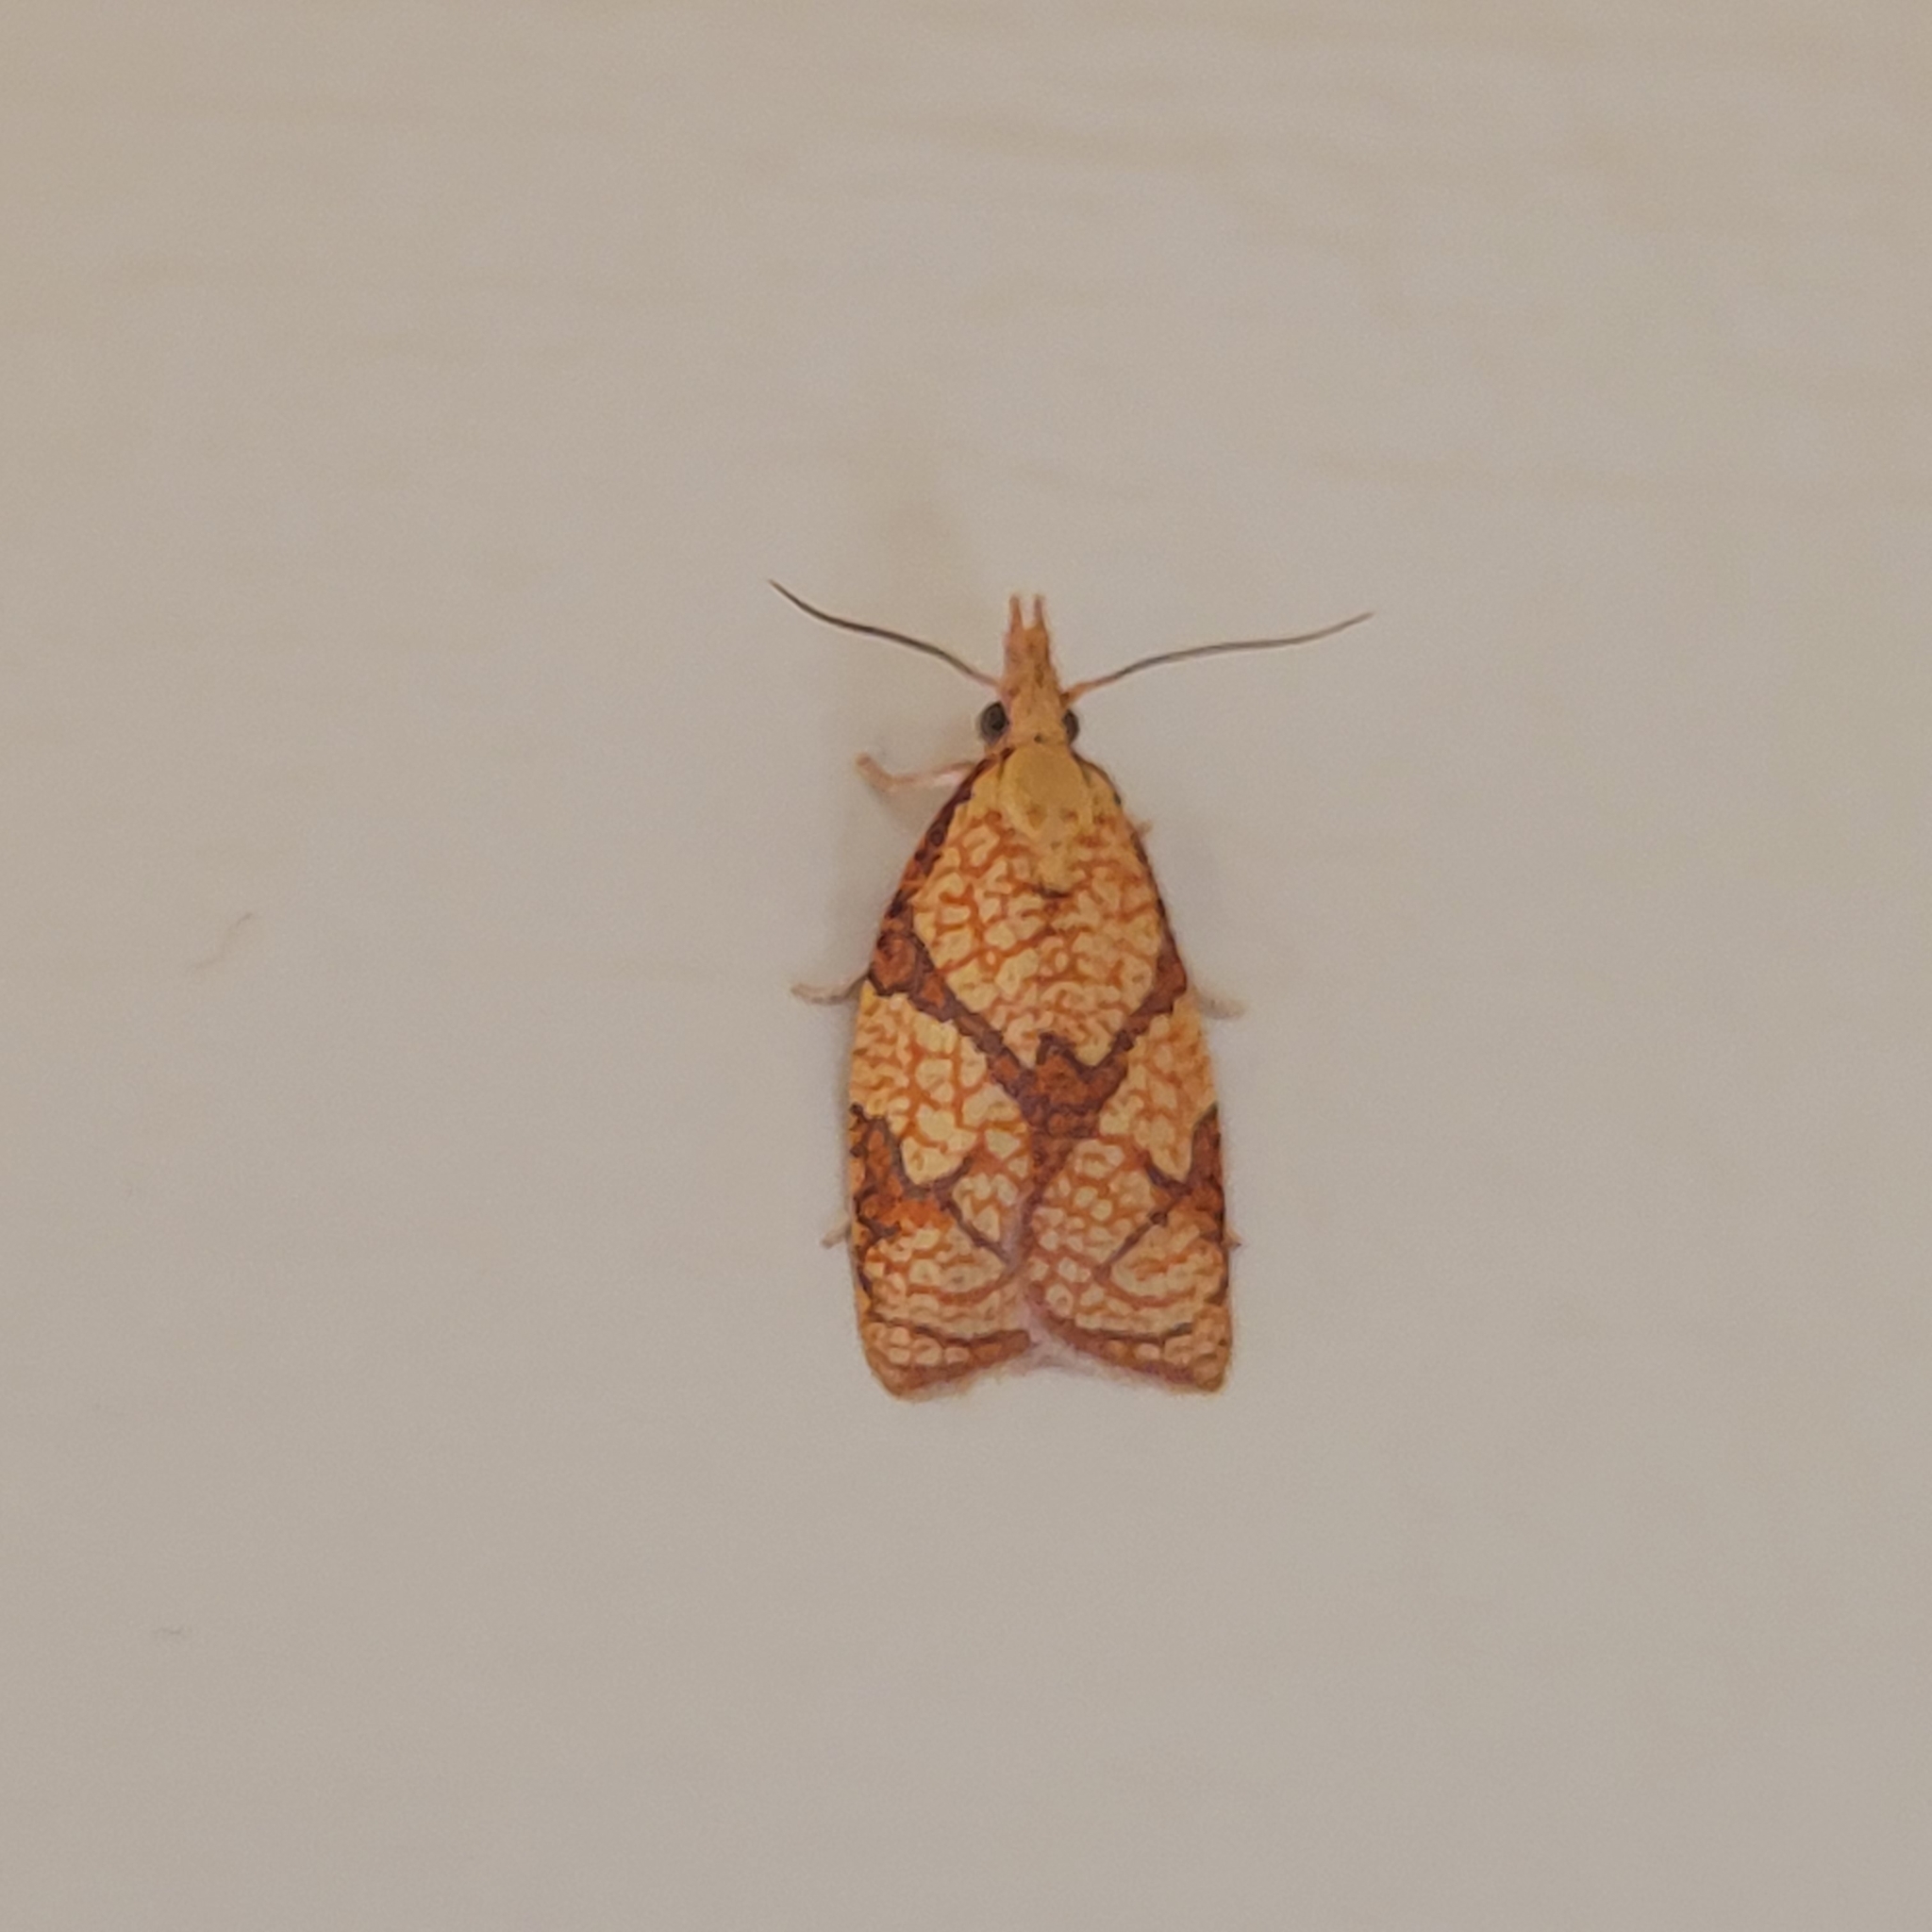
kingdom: Animalia
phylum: Arthropoda
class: Insecta
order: Lepidoptera
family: Tortricidae
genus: Cenopis
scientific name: Cenopis reticulatana
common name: Reticulated fruitworm moth
